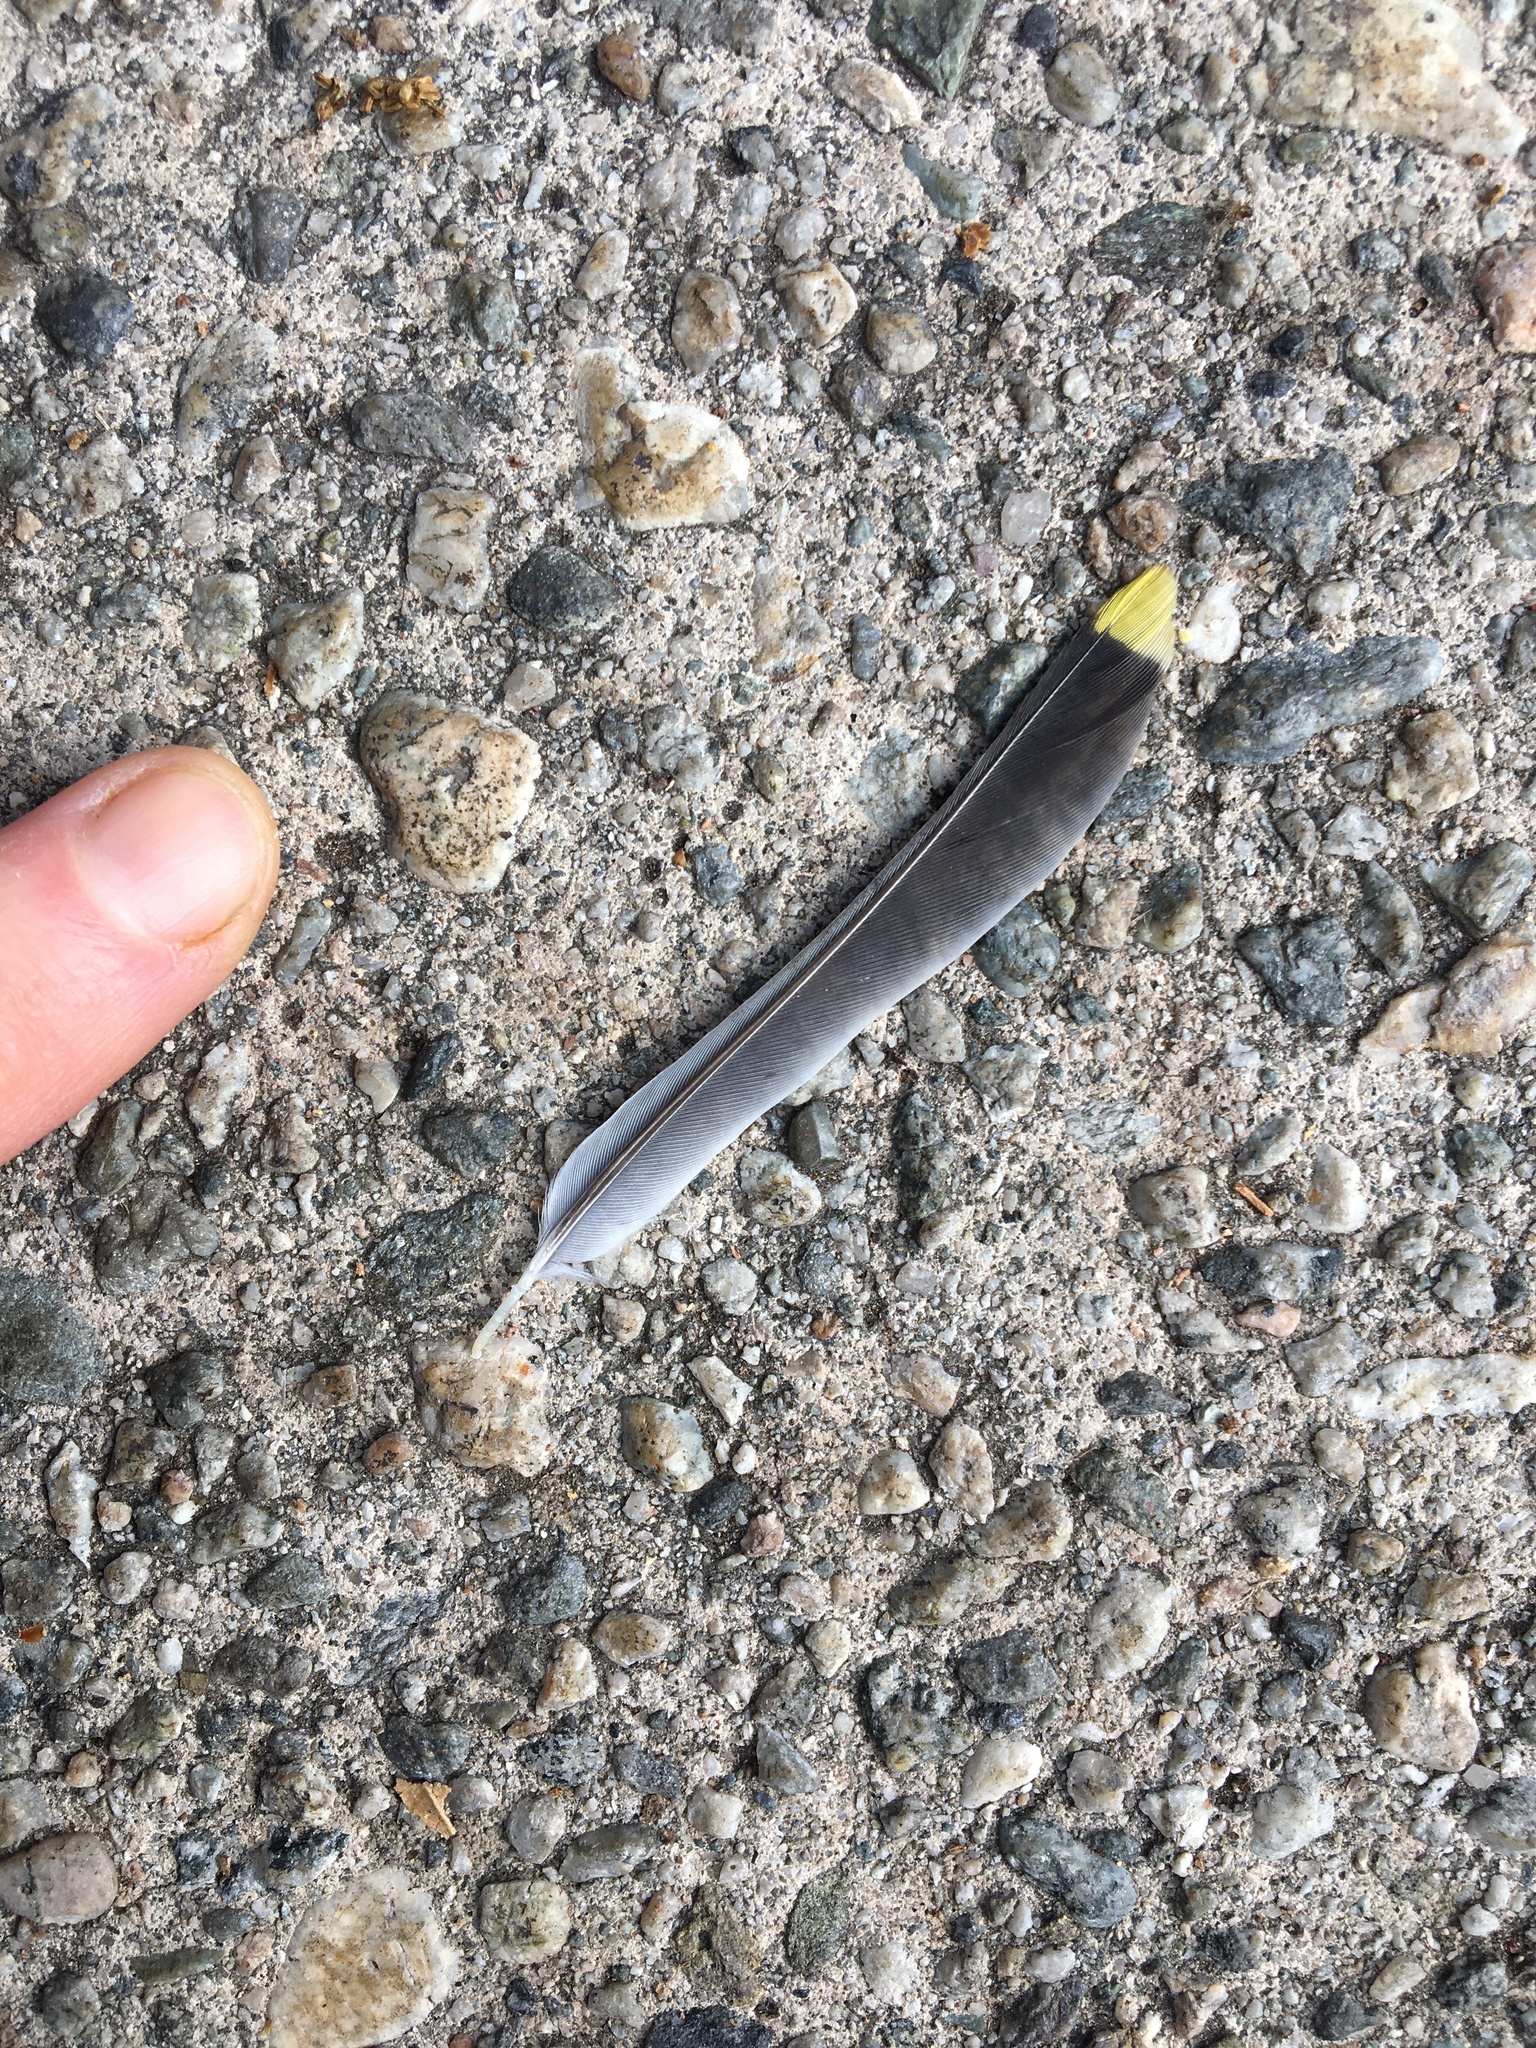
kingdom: Animalia
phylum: Chordata
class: Aves
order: Passeriformes
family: Bombycillidae
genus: Bombycilla
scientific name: Bombycilla cedrorum
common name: Cedar waxwing
